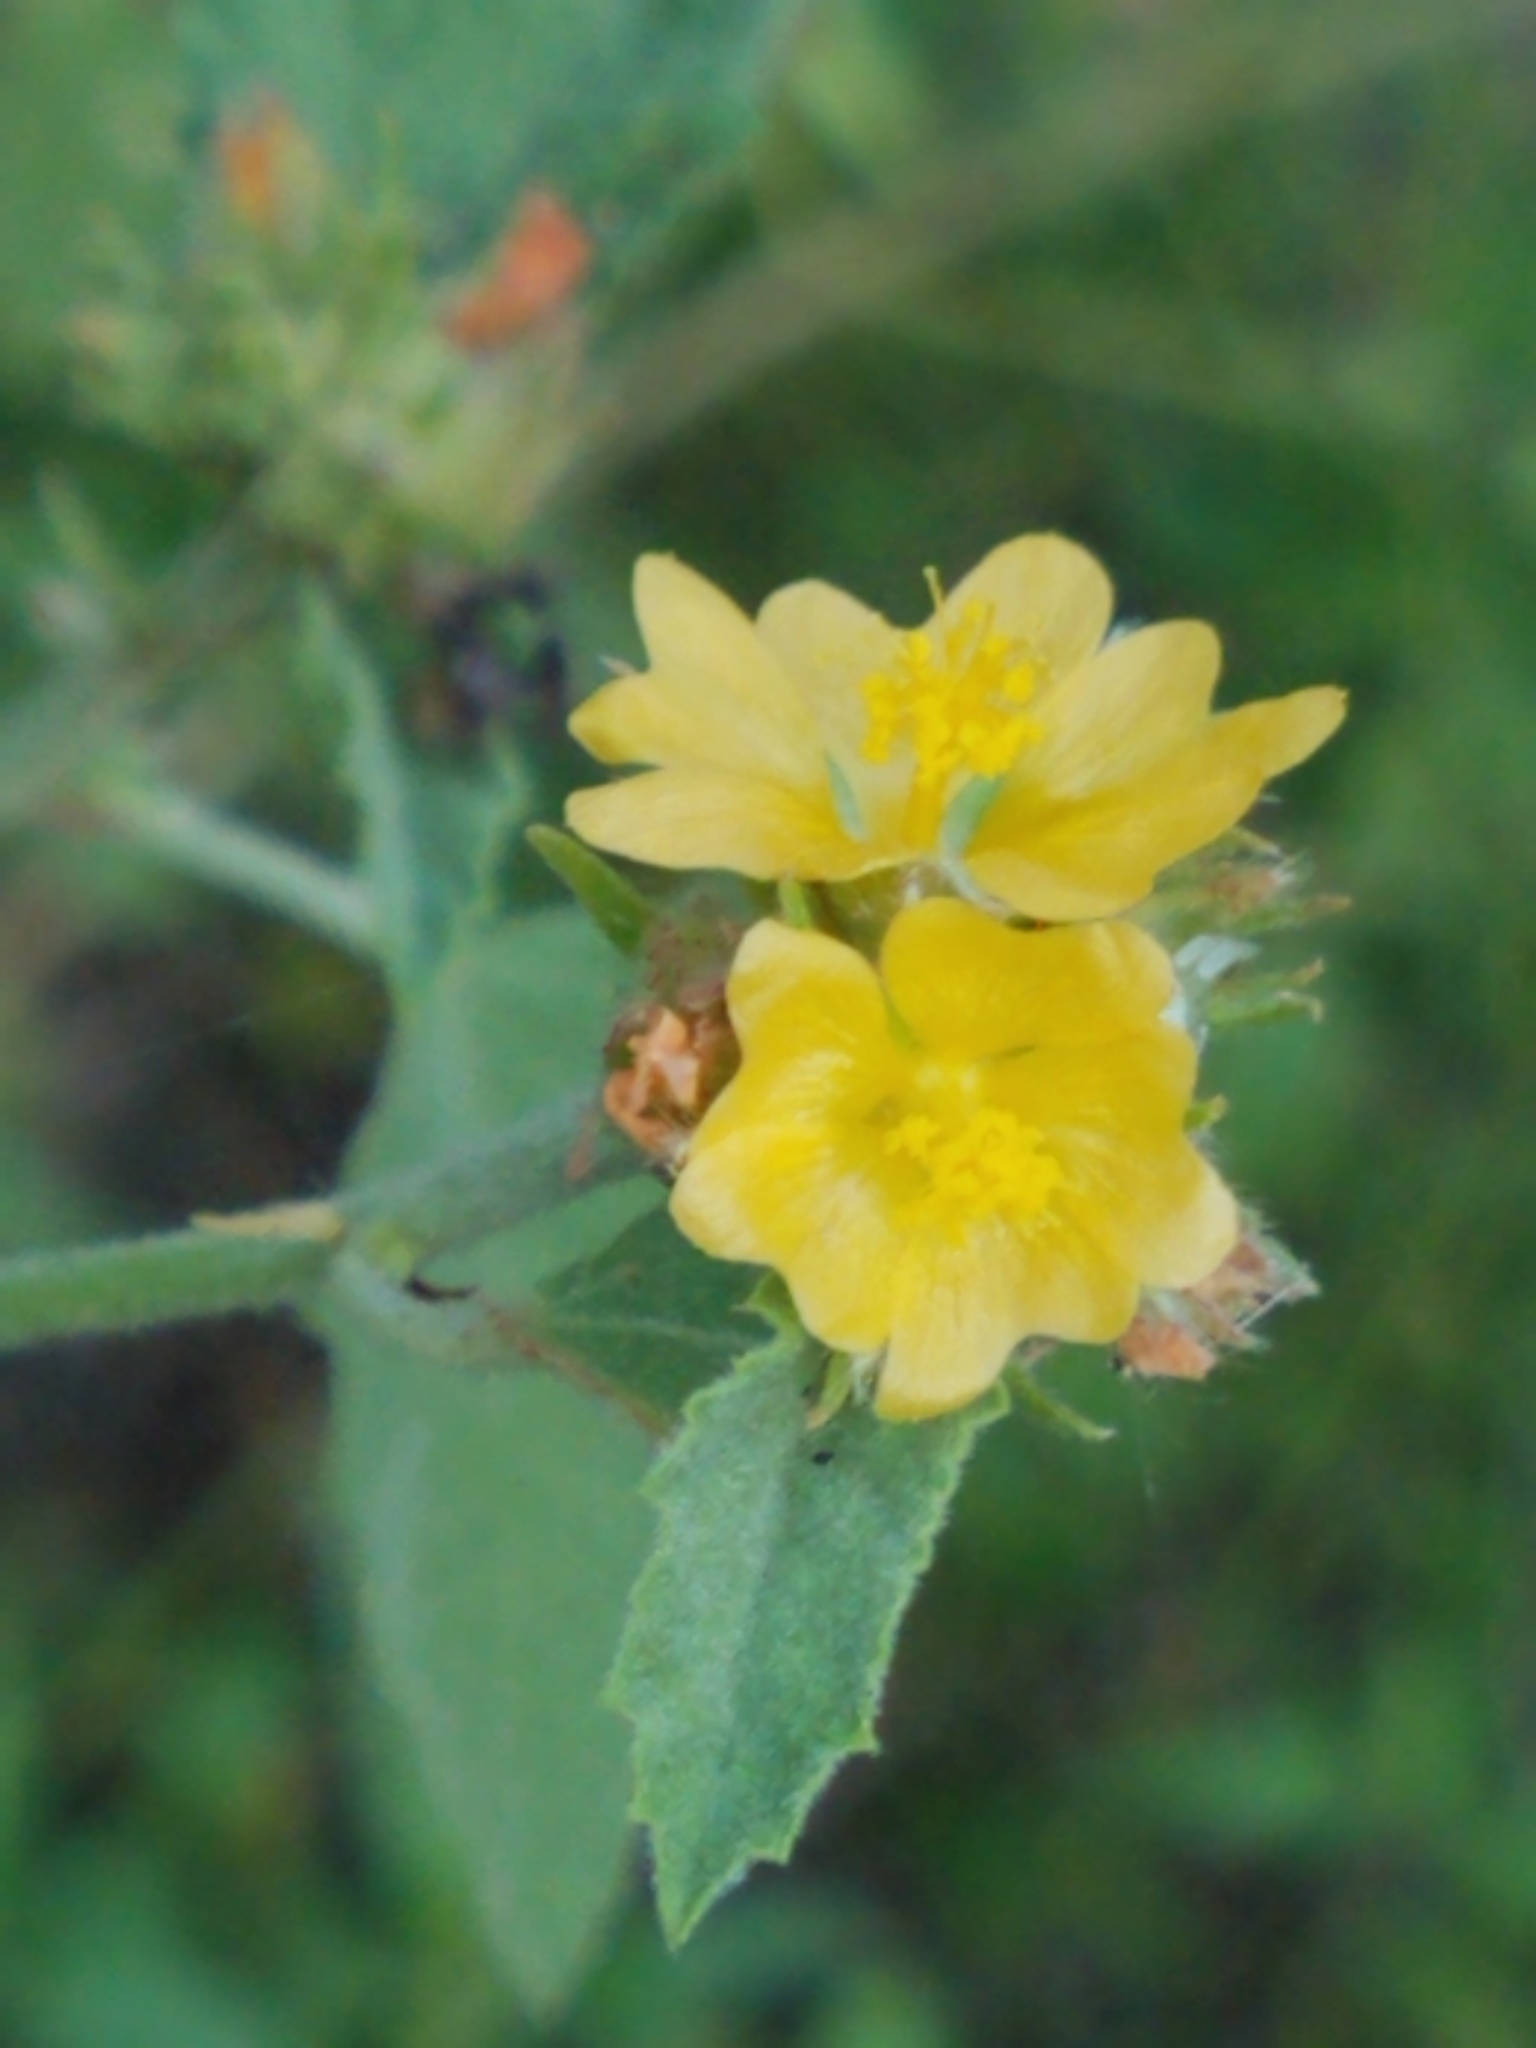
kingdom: Plantae
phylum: Tracheophyta
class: Magnoliopsida
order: Malvales
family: Malvaceae
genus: Malvastrum
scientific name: Malvastrum americanum
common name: Spiked malvastrum
